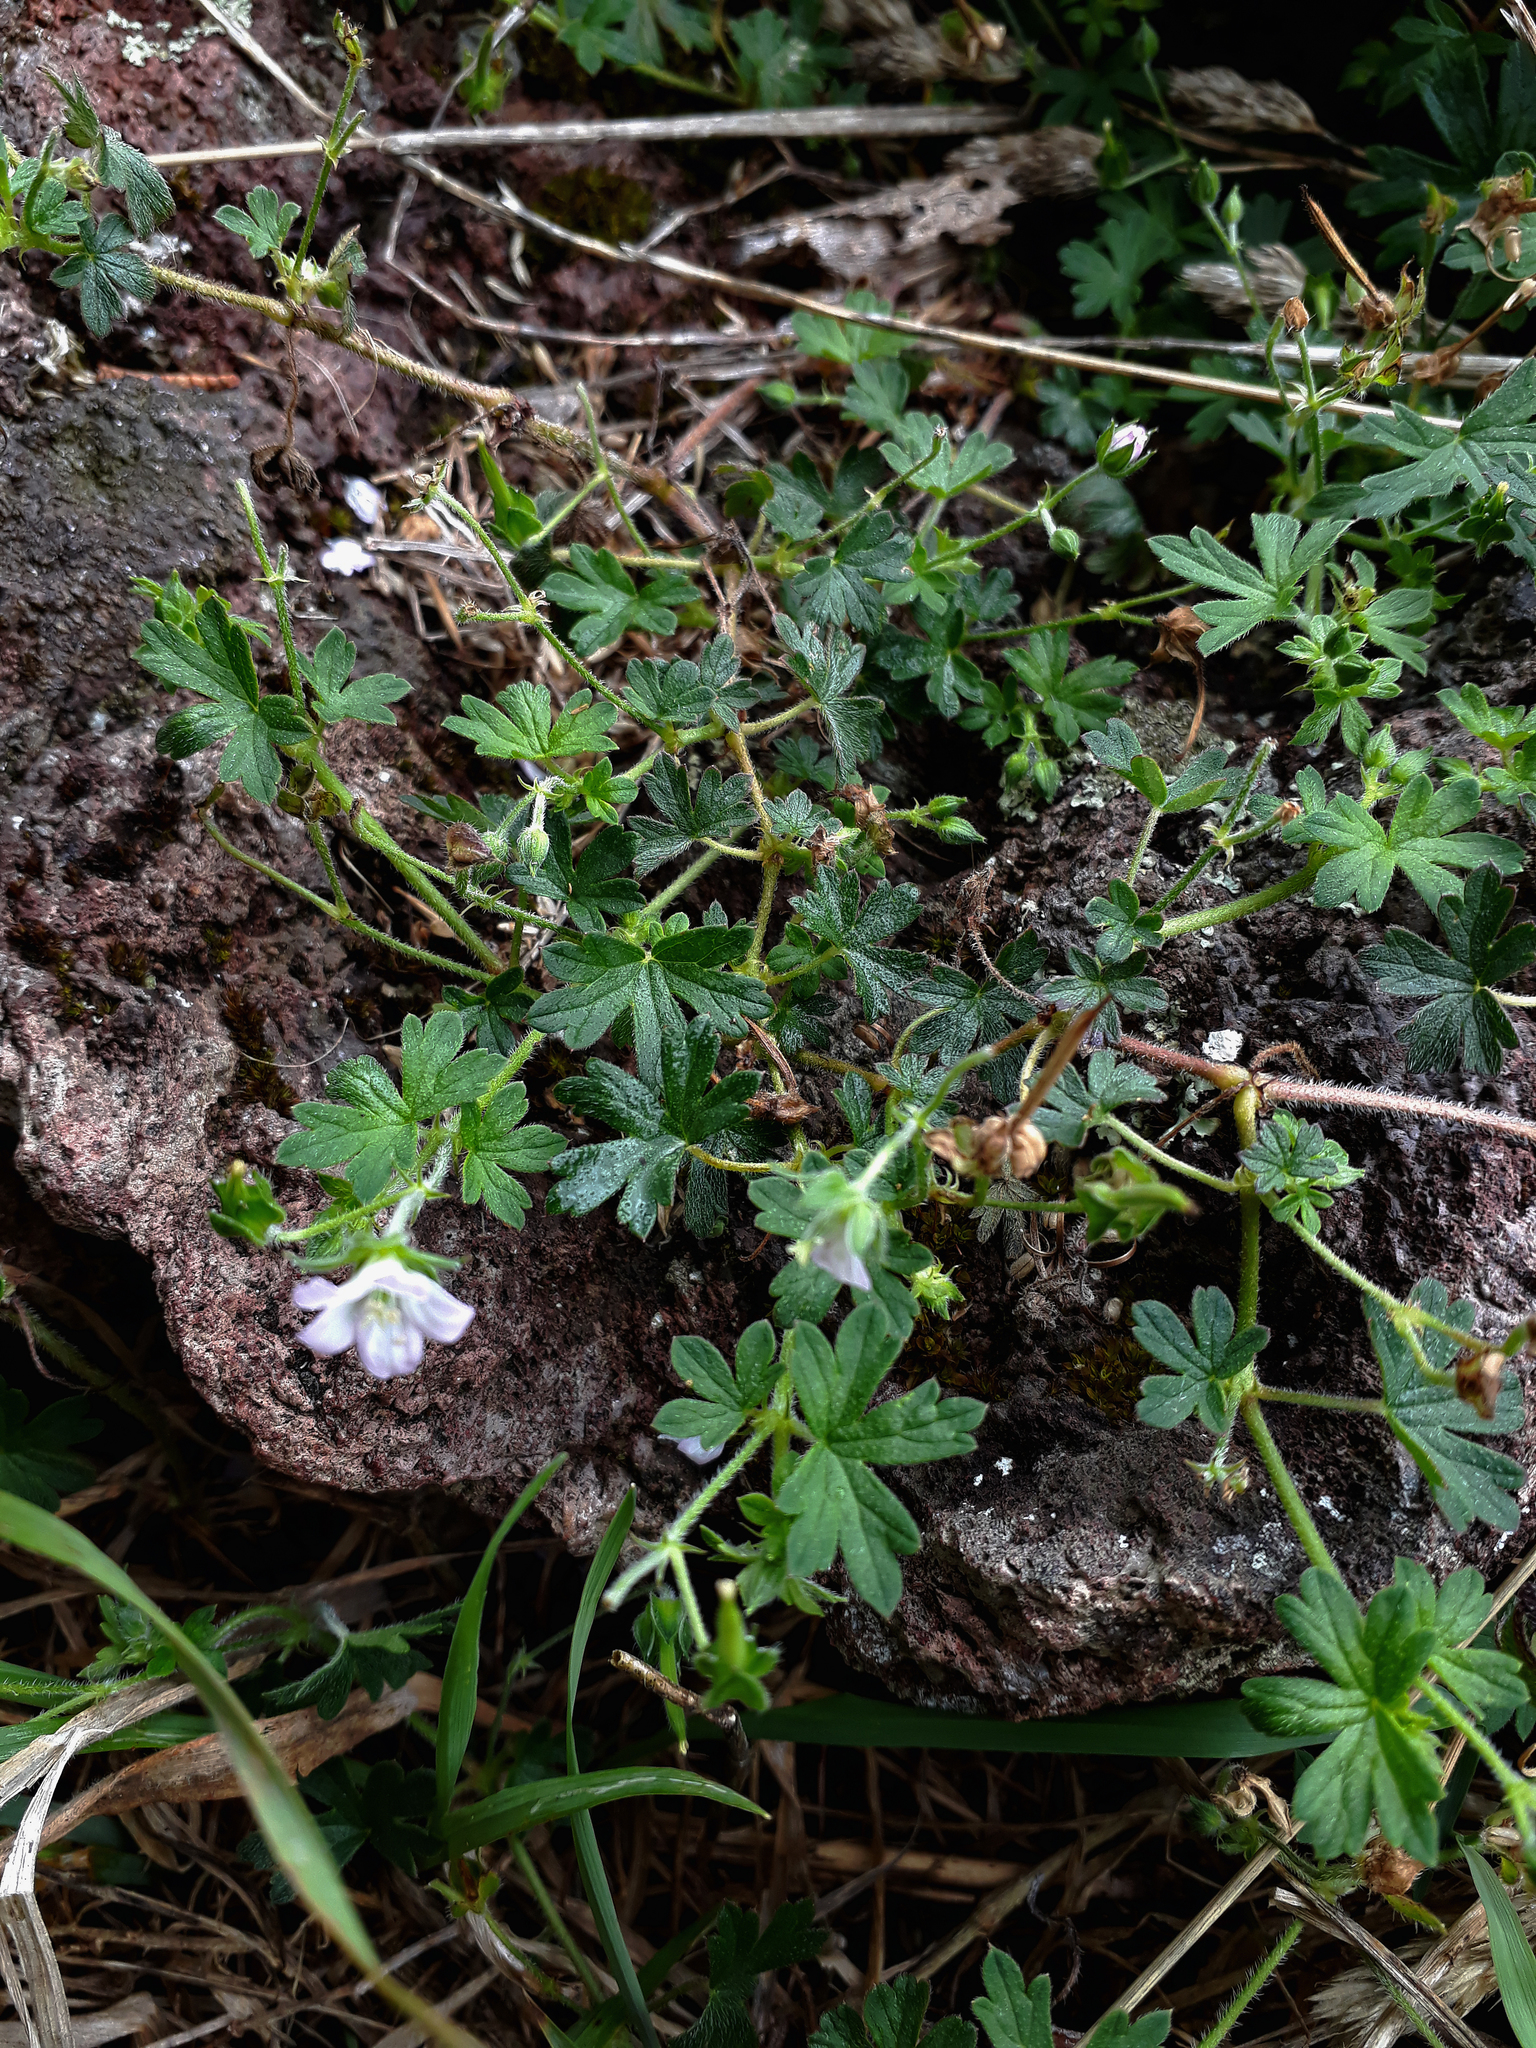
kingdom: Plantae
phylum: Tracheophyta
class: Magnoliopsida
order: Geraniales
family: Geraniaceae
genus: Geranium
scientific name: Geranium gardneri
